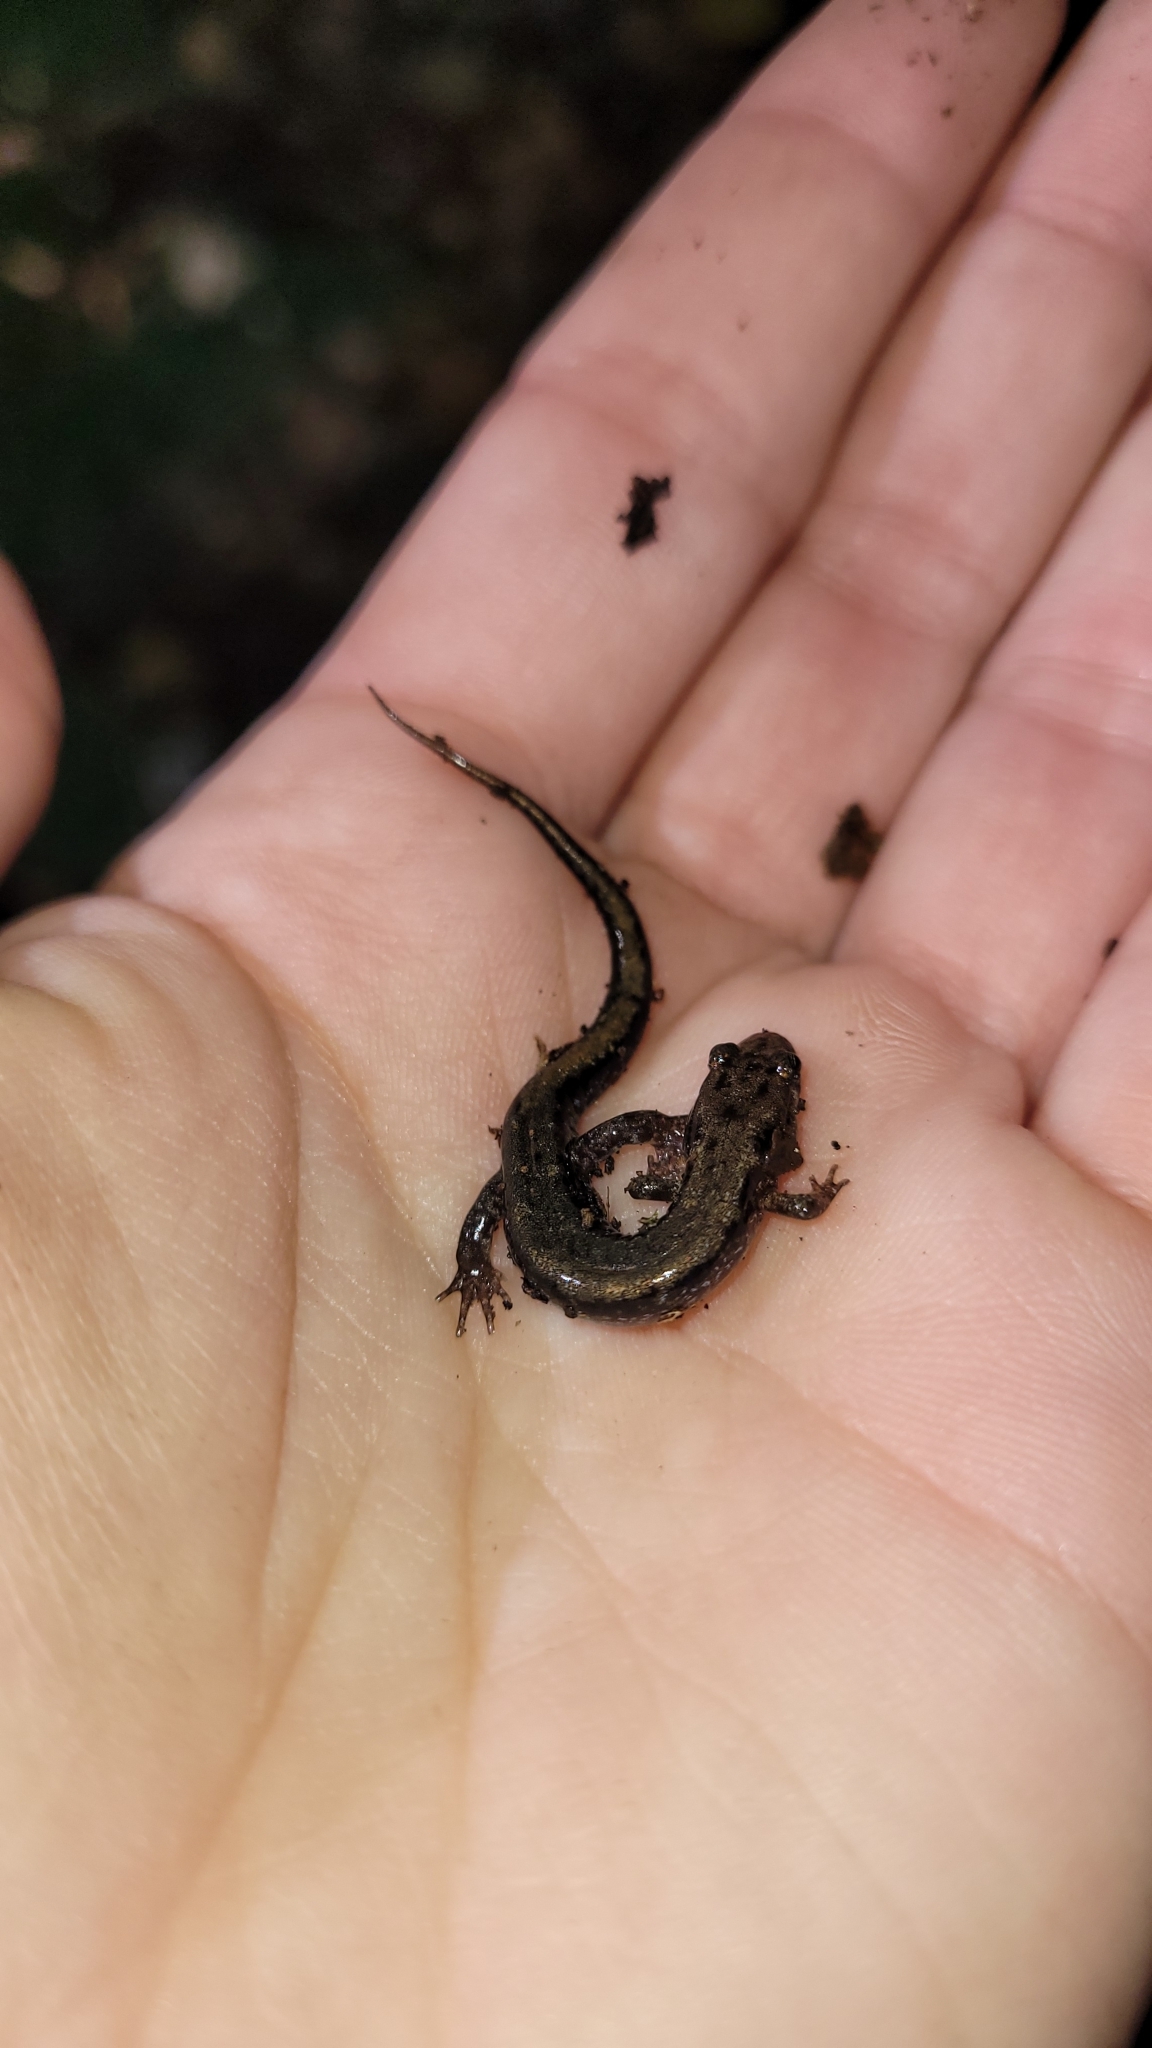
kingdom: Animalia
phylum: Chordata
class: Amphibia
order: Caudata
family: Plethodontidae
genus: Desmognathus
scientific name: Desmognathus ochrophaeus
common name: Allegheny mountain dusky salamander
